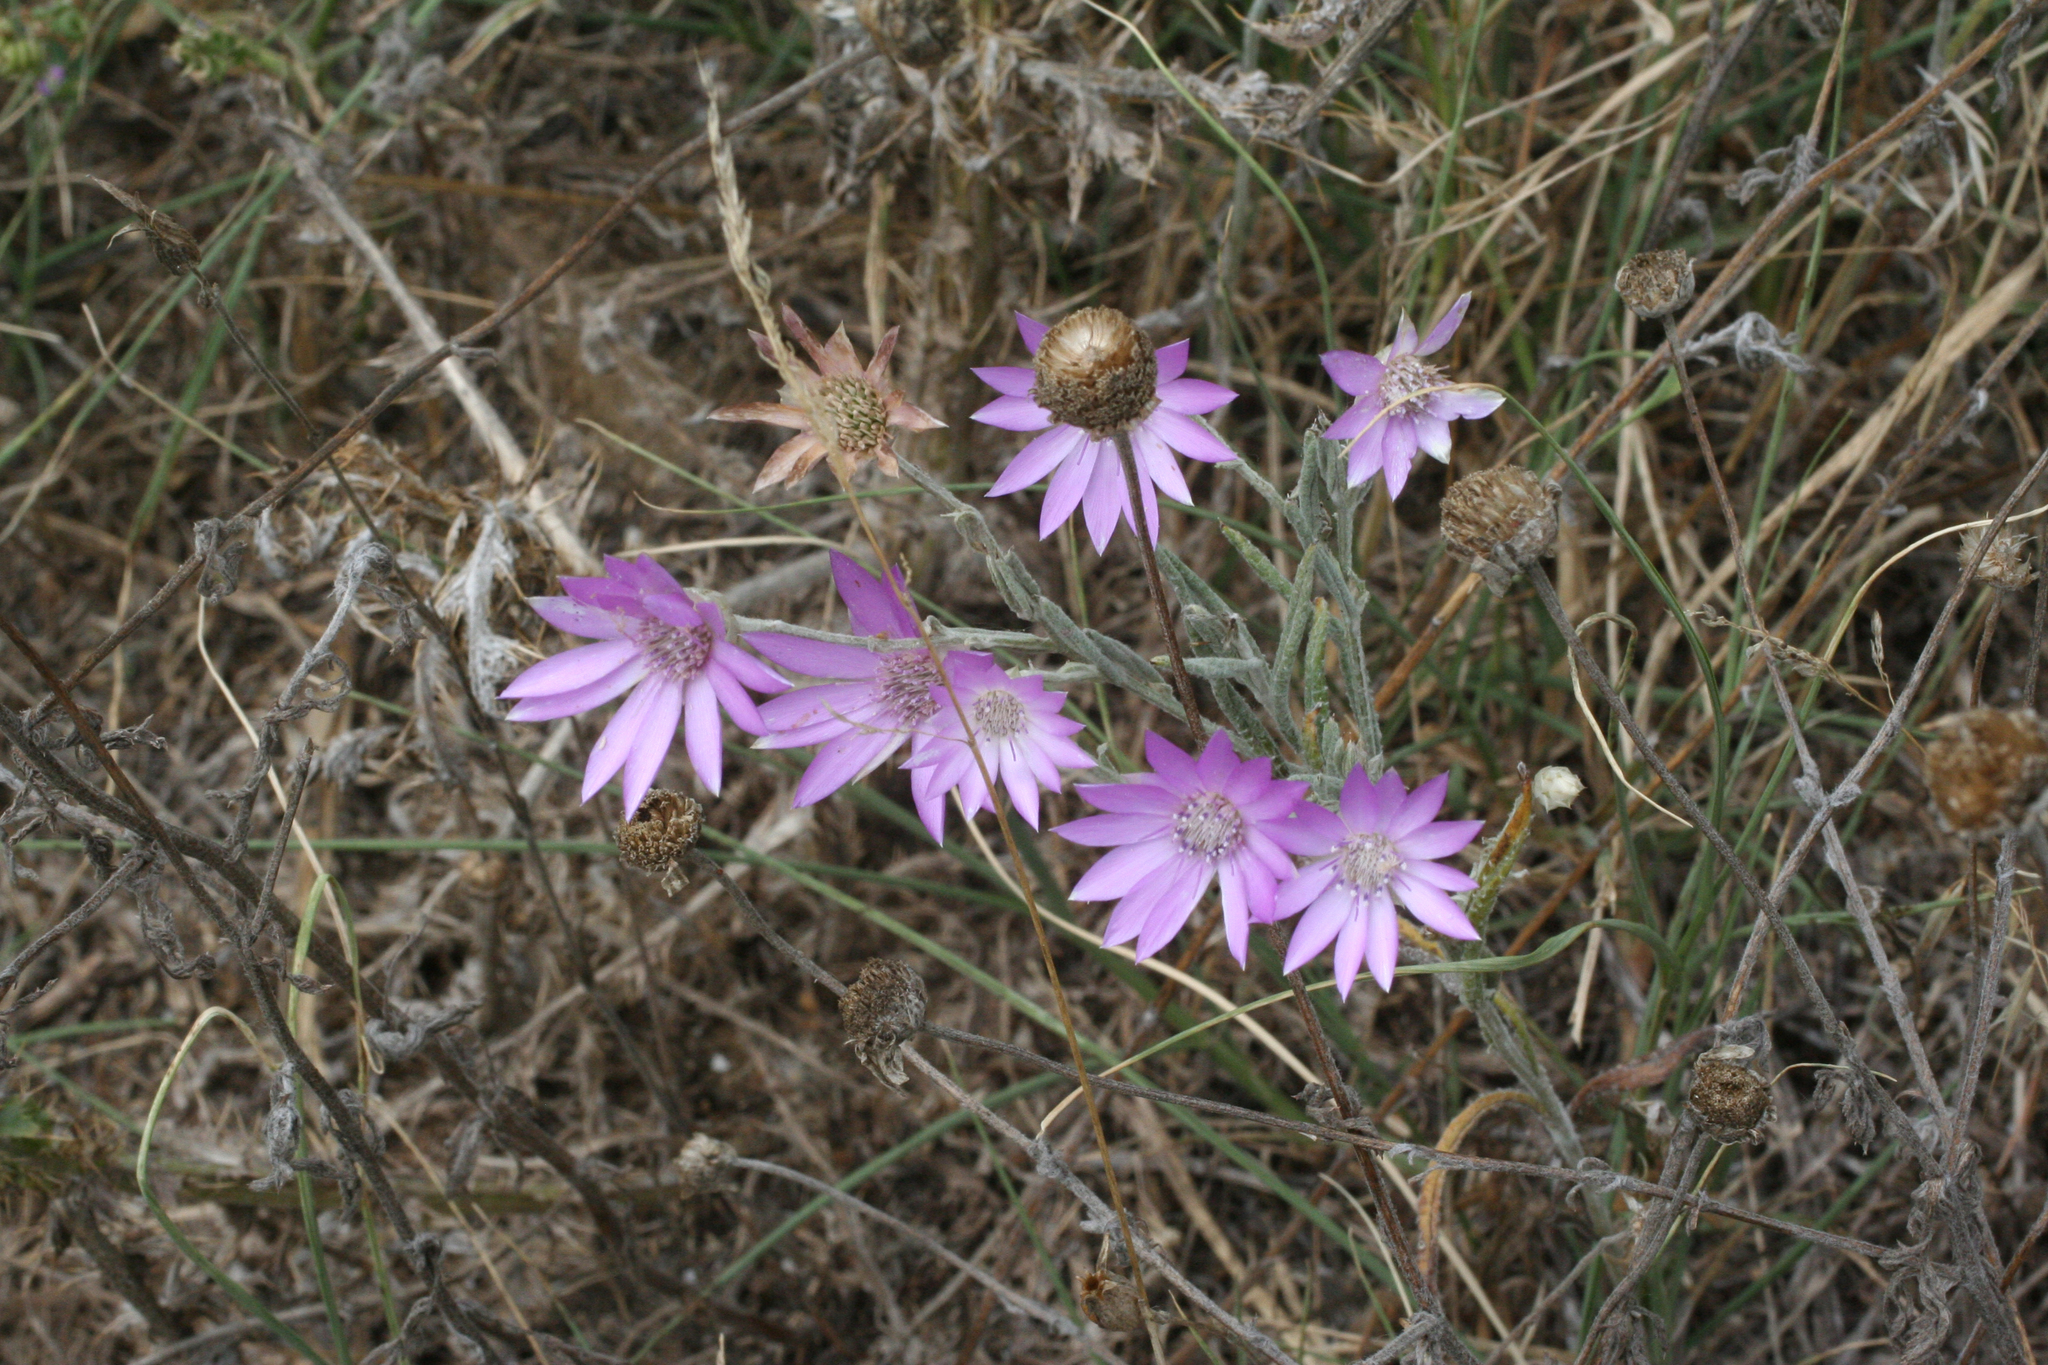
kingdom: Plantae
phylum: Tracheophyta
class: Magnoliopsida
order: Asterales
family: Asteraceae
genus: Xeranthemum
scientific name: Xeranthemum annuum
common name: Immortelle
